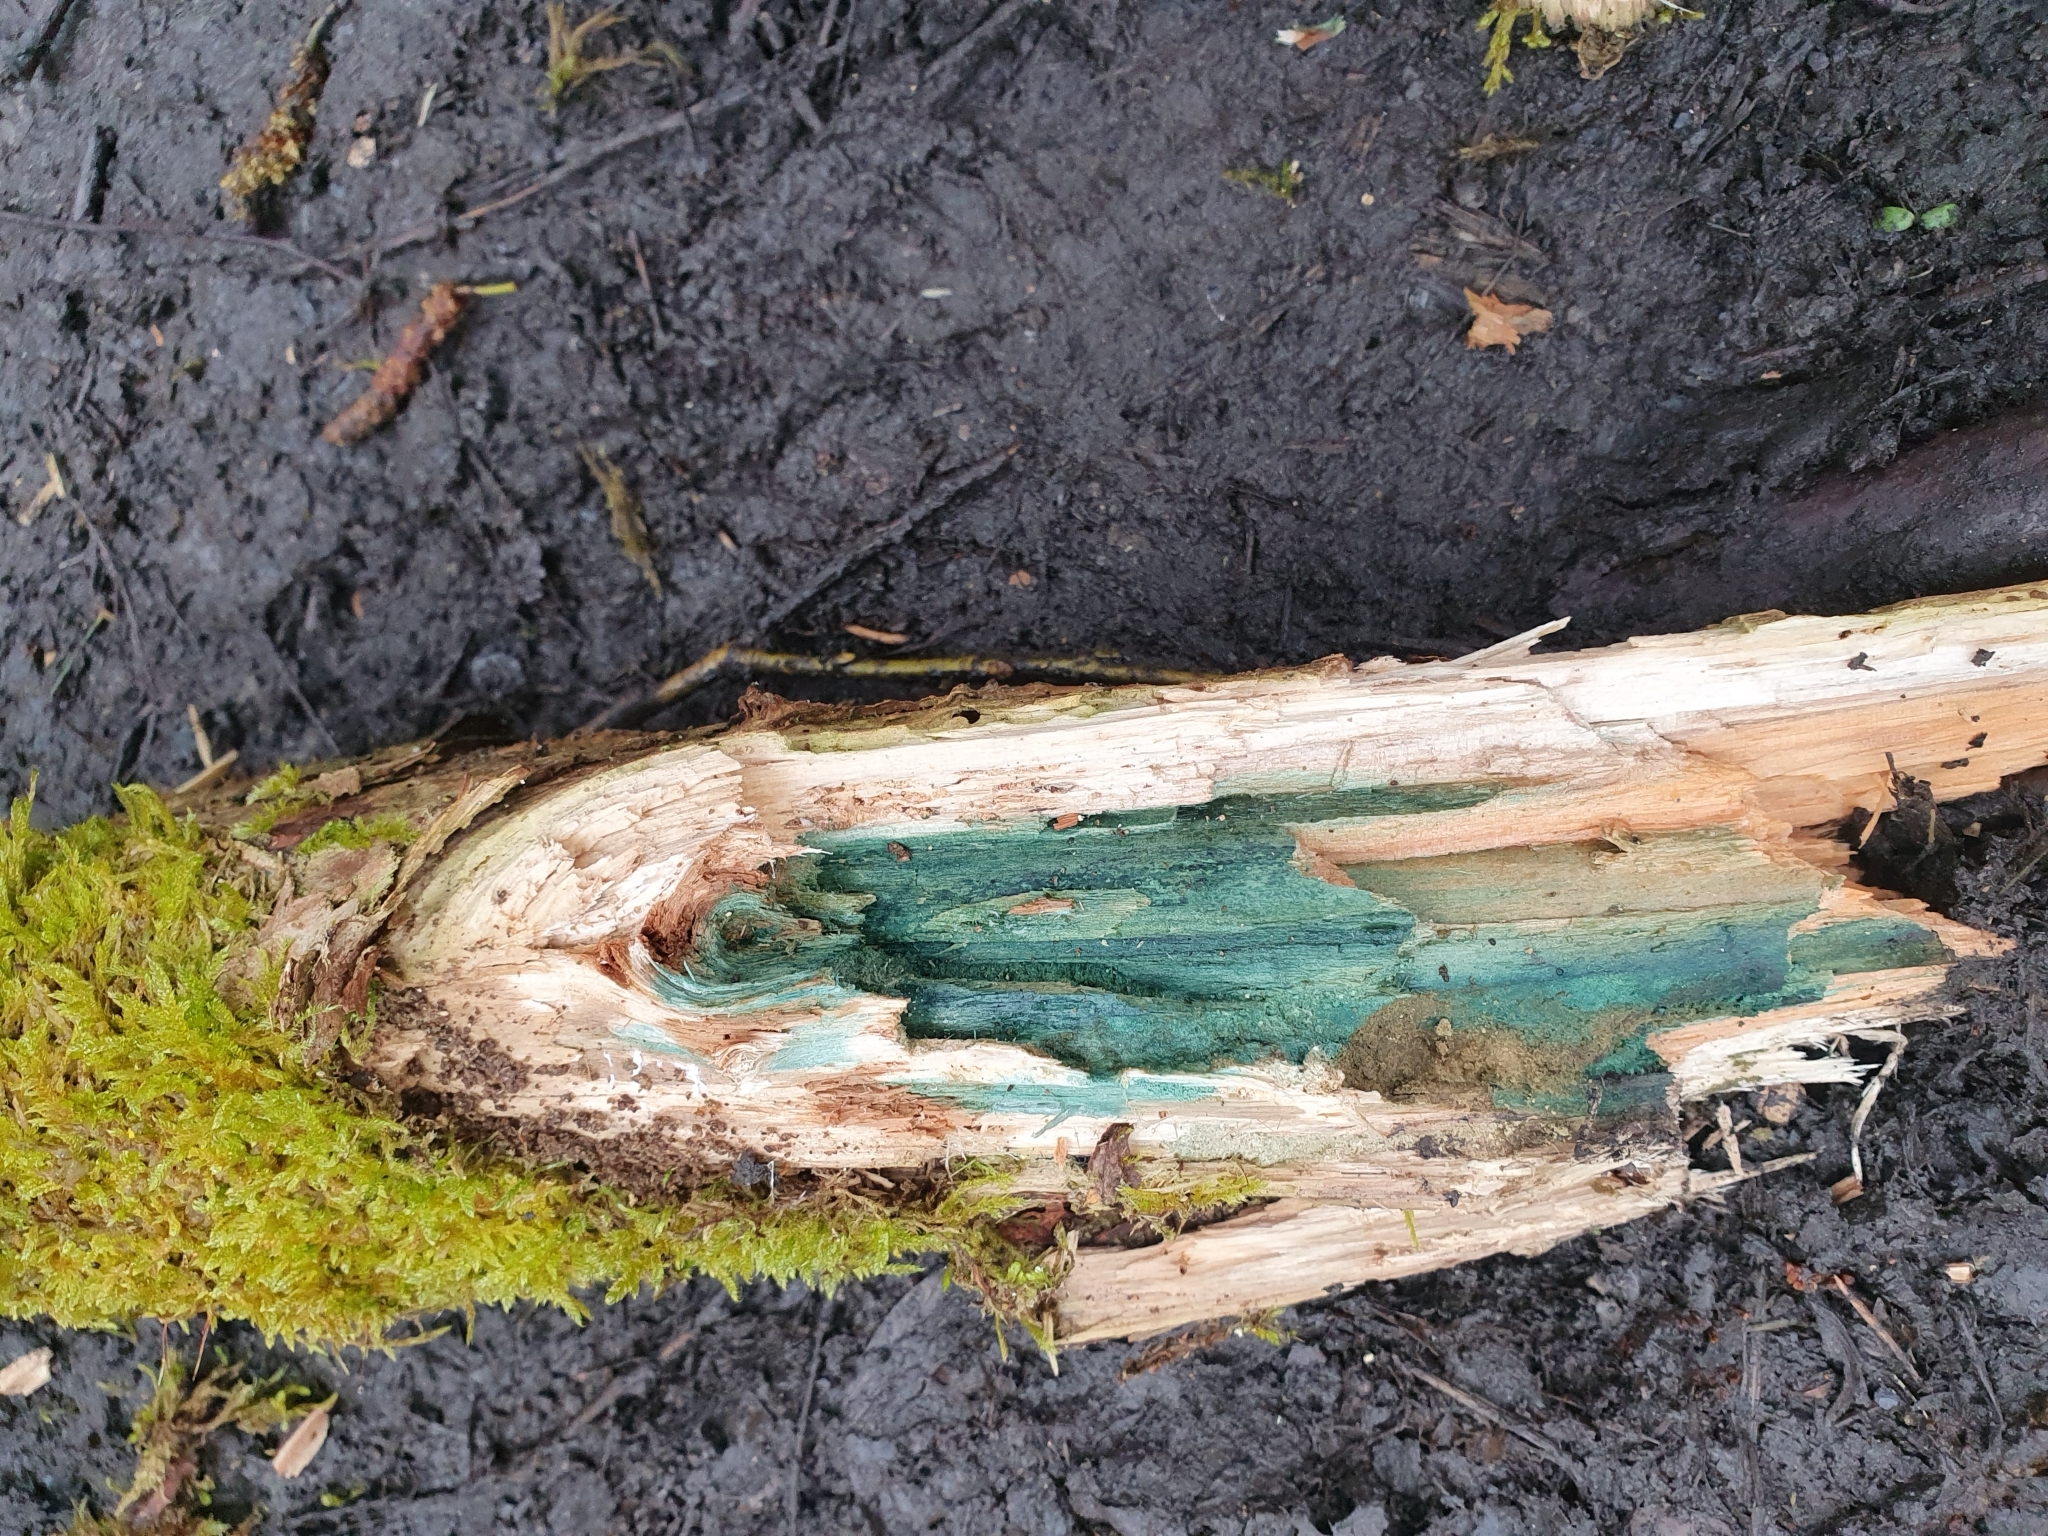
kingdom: Fungi
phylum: Ascomycota
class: Leotiomycetes
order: Helotiales
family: Chlorociboriaceae
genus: Chlorociboria
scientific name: Chlorociboria
